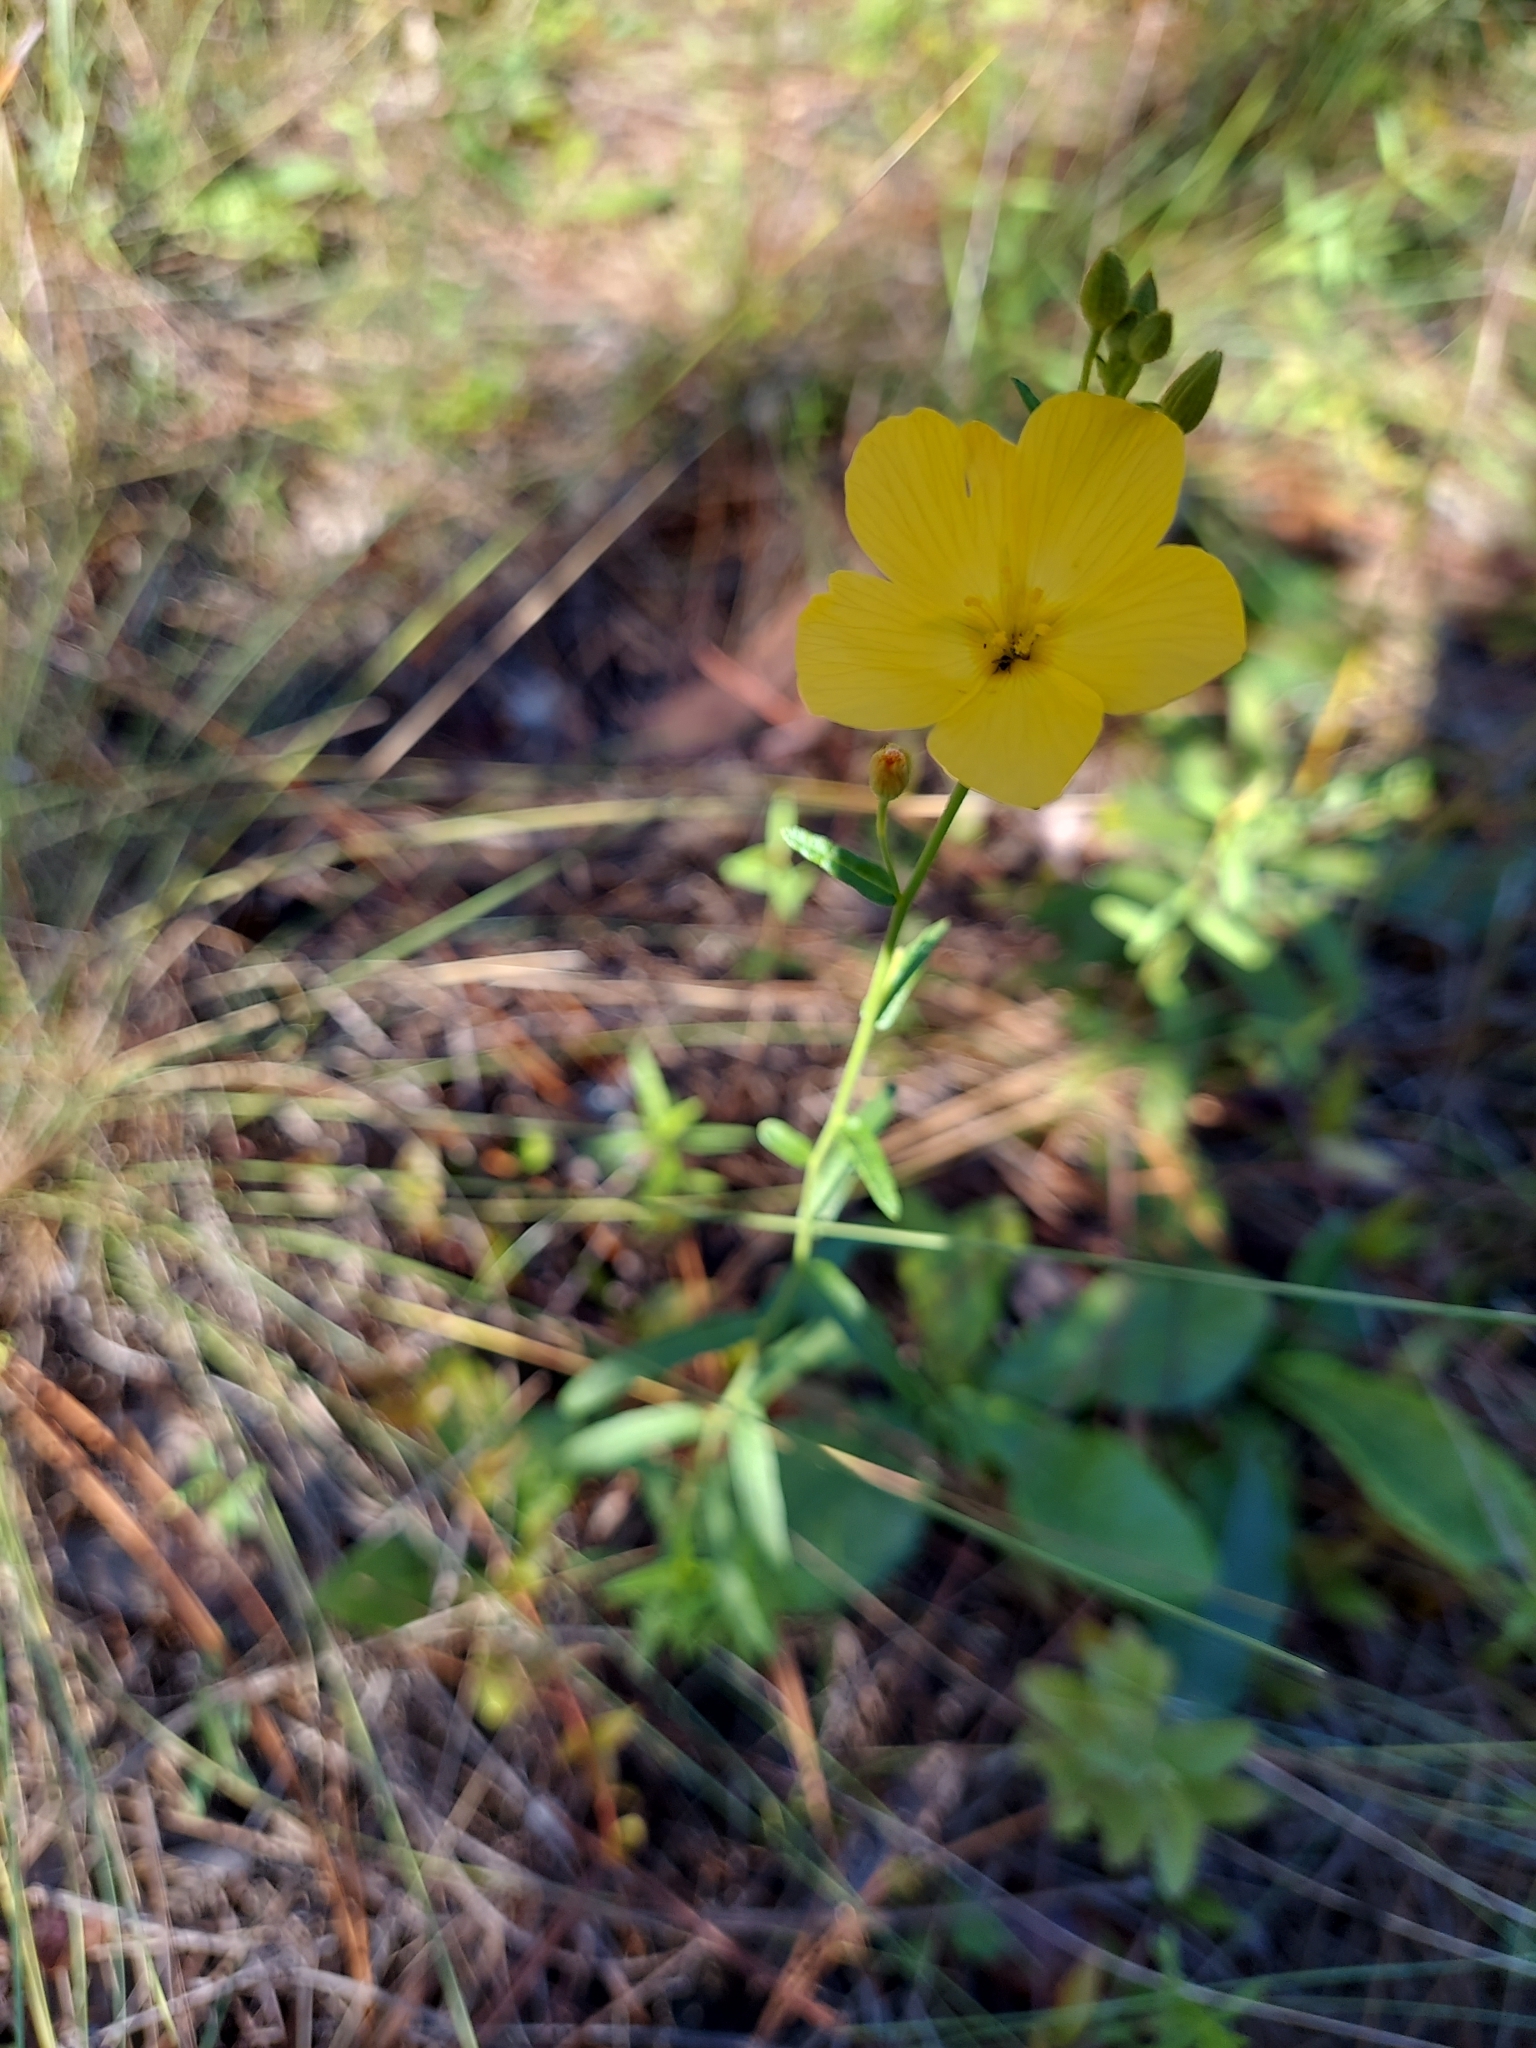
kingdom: Plantae
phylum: Tracheophyta
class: Magnoliopsida
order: Malpighiales
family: Turneraceae
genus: Piriqueta
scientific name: Piriqueta cistoides
